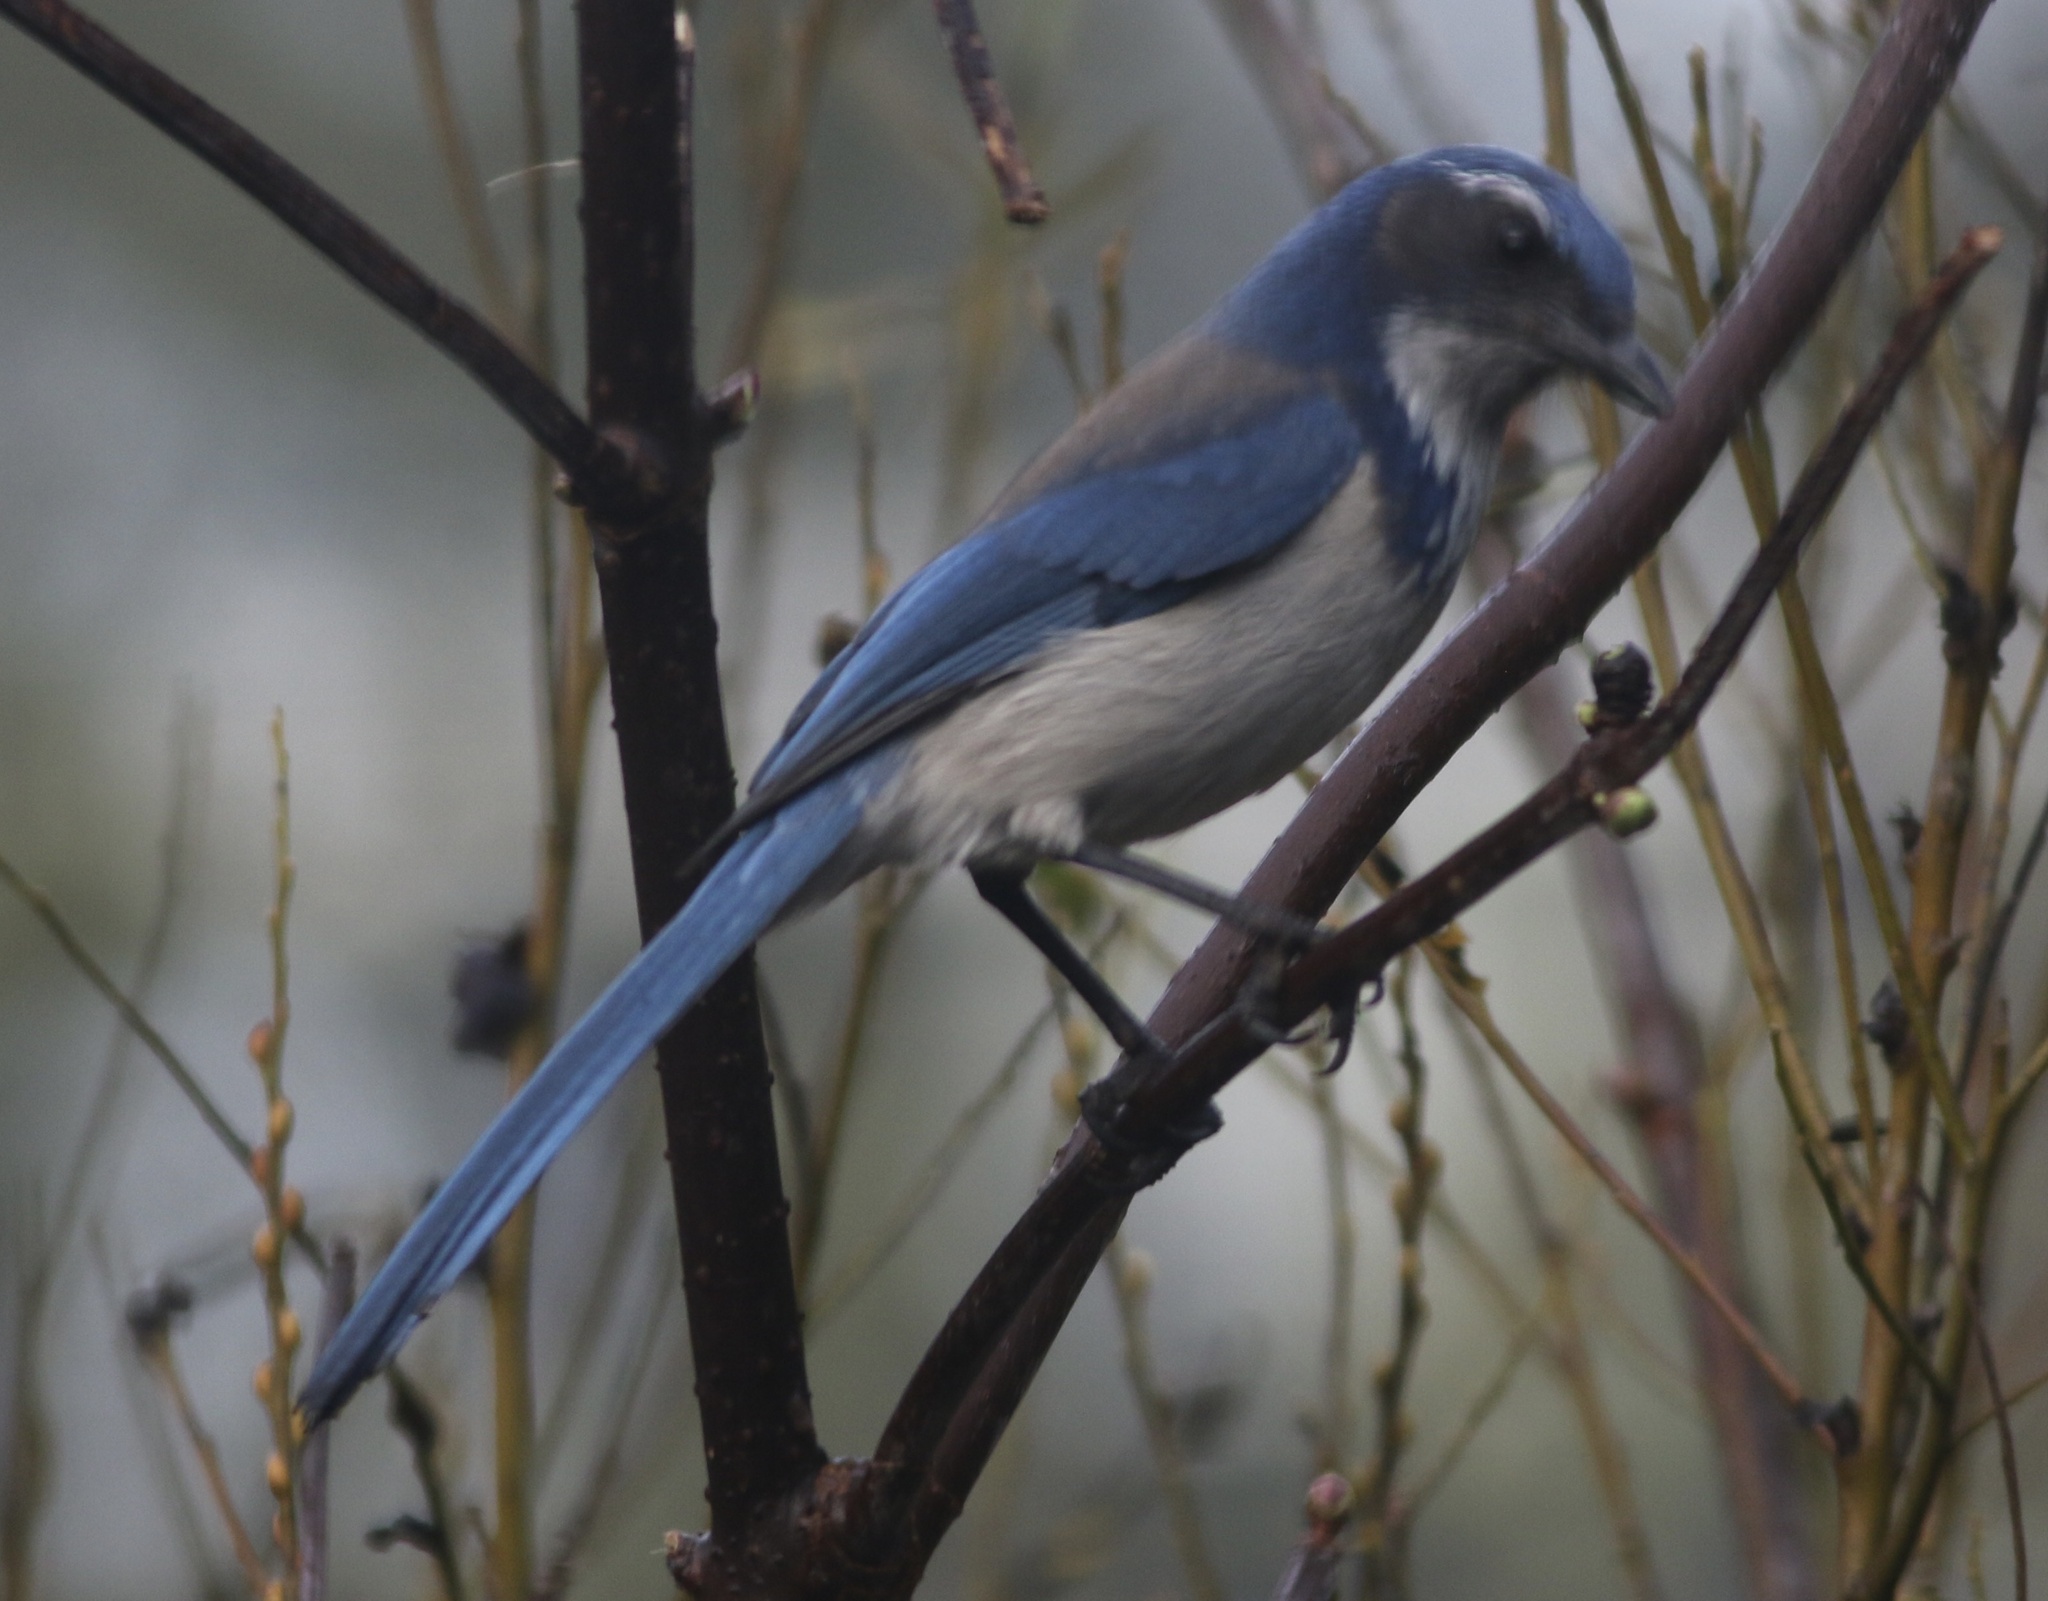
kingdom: Animalia
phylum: Chordata
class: Aves
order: Passeriformes
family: Corvidae
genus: Aphelocoma
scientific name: Aphelocoma californica
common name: California scrub-jay
